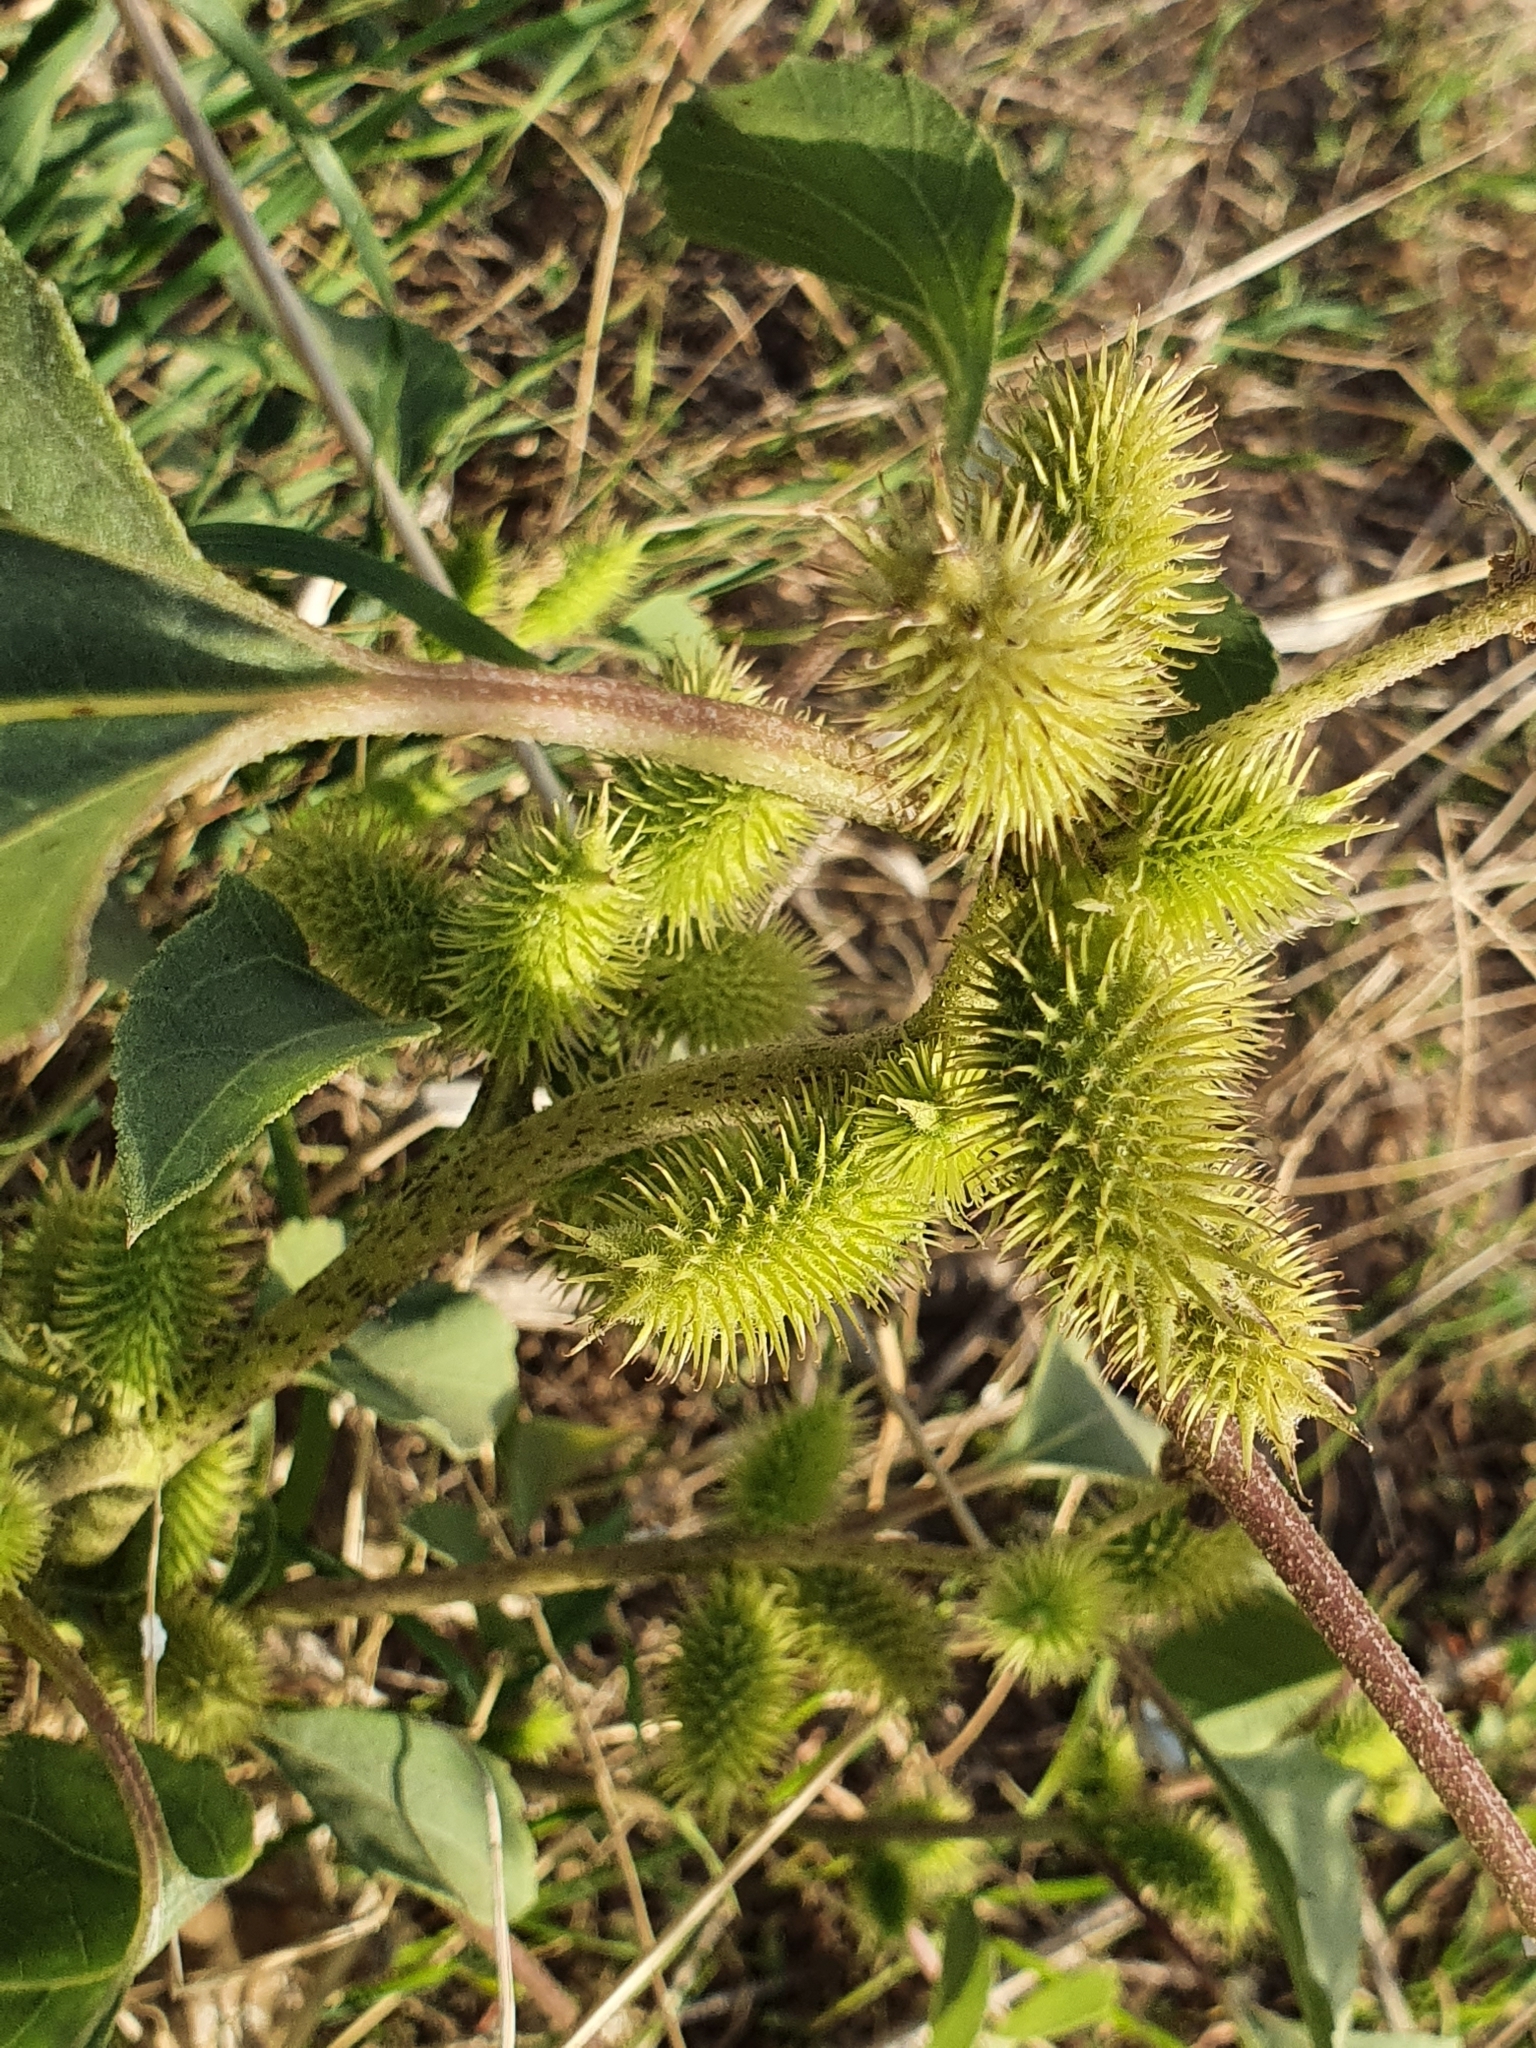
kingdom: Plantae
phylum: Tracheophyta
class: Magnoliopsida
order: Asterales
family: Asteraceae
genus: Xanthium
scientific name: Xanthium strumarium
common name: Rough cocklebur
